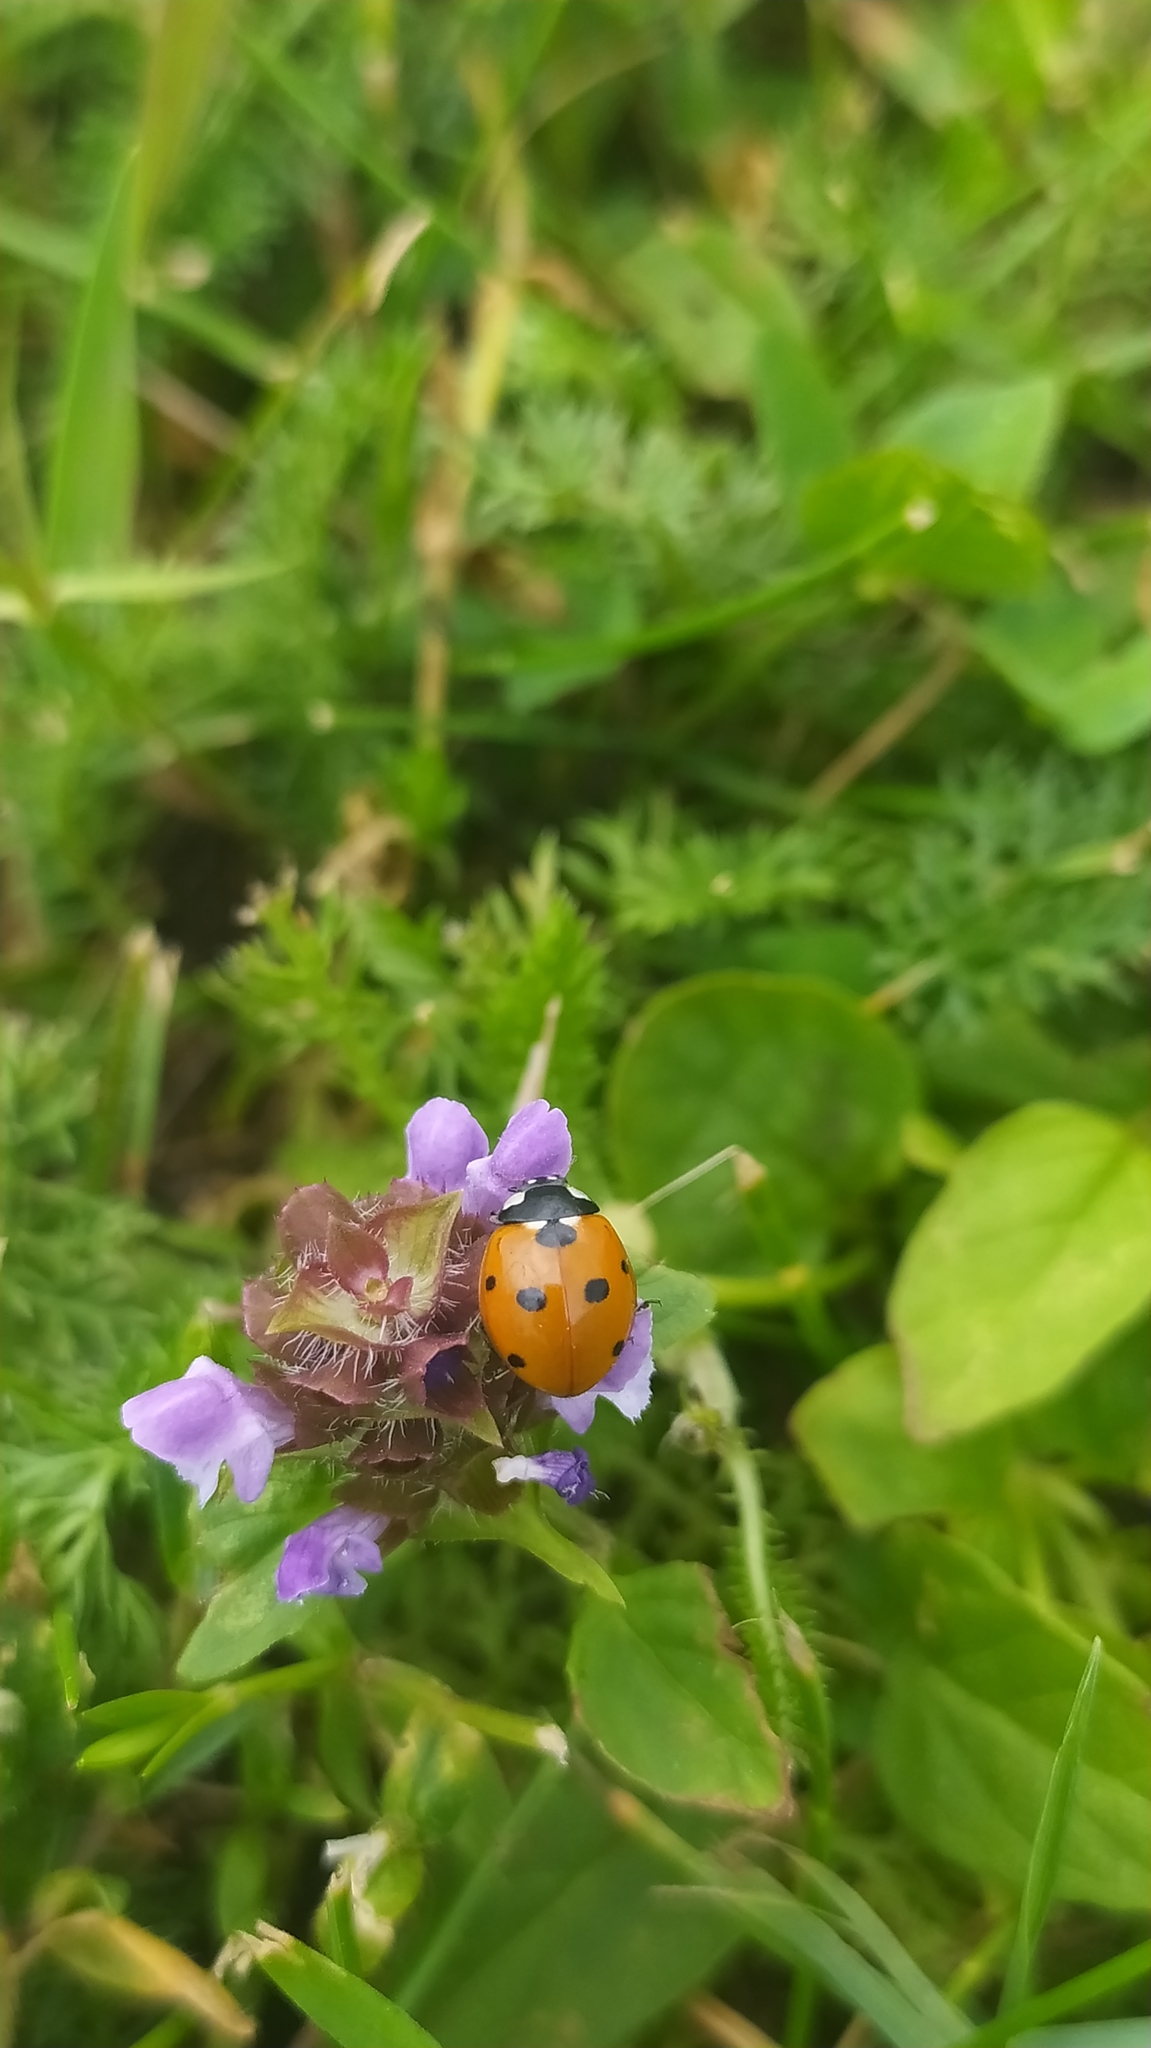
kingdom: Animalia
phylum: Arthropoda
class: Insecta
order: Coleoptera
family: Coccinellidae
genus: Coccinella
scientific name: Coccinella septempunctata
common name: Sevenspotted lady beetle
